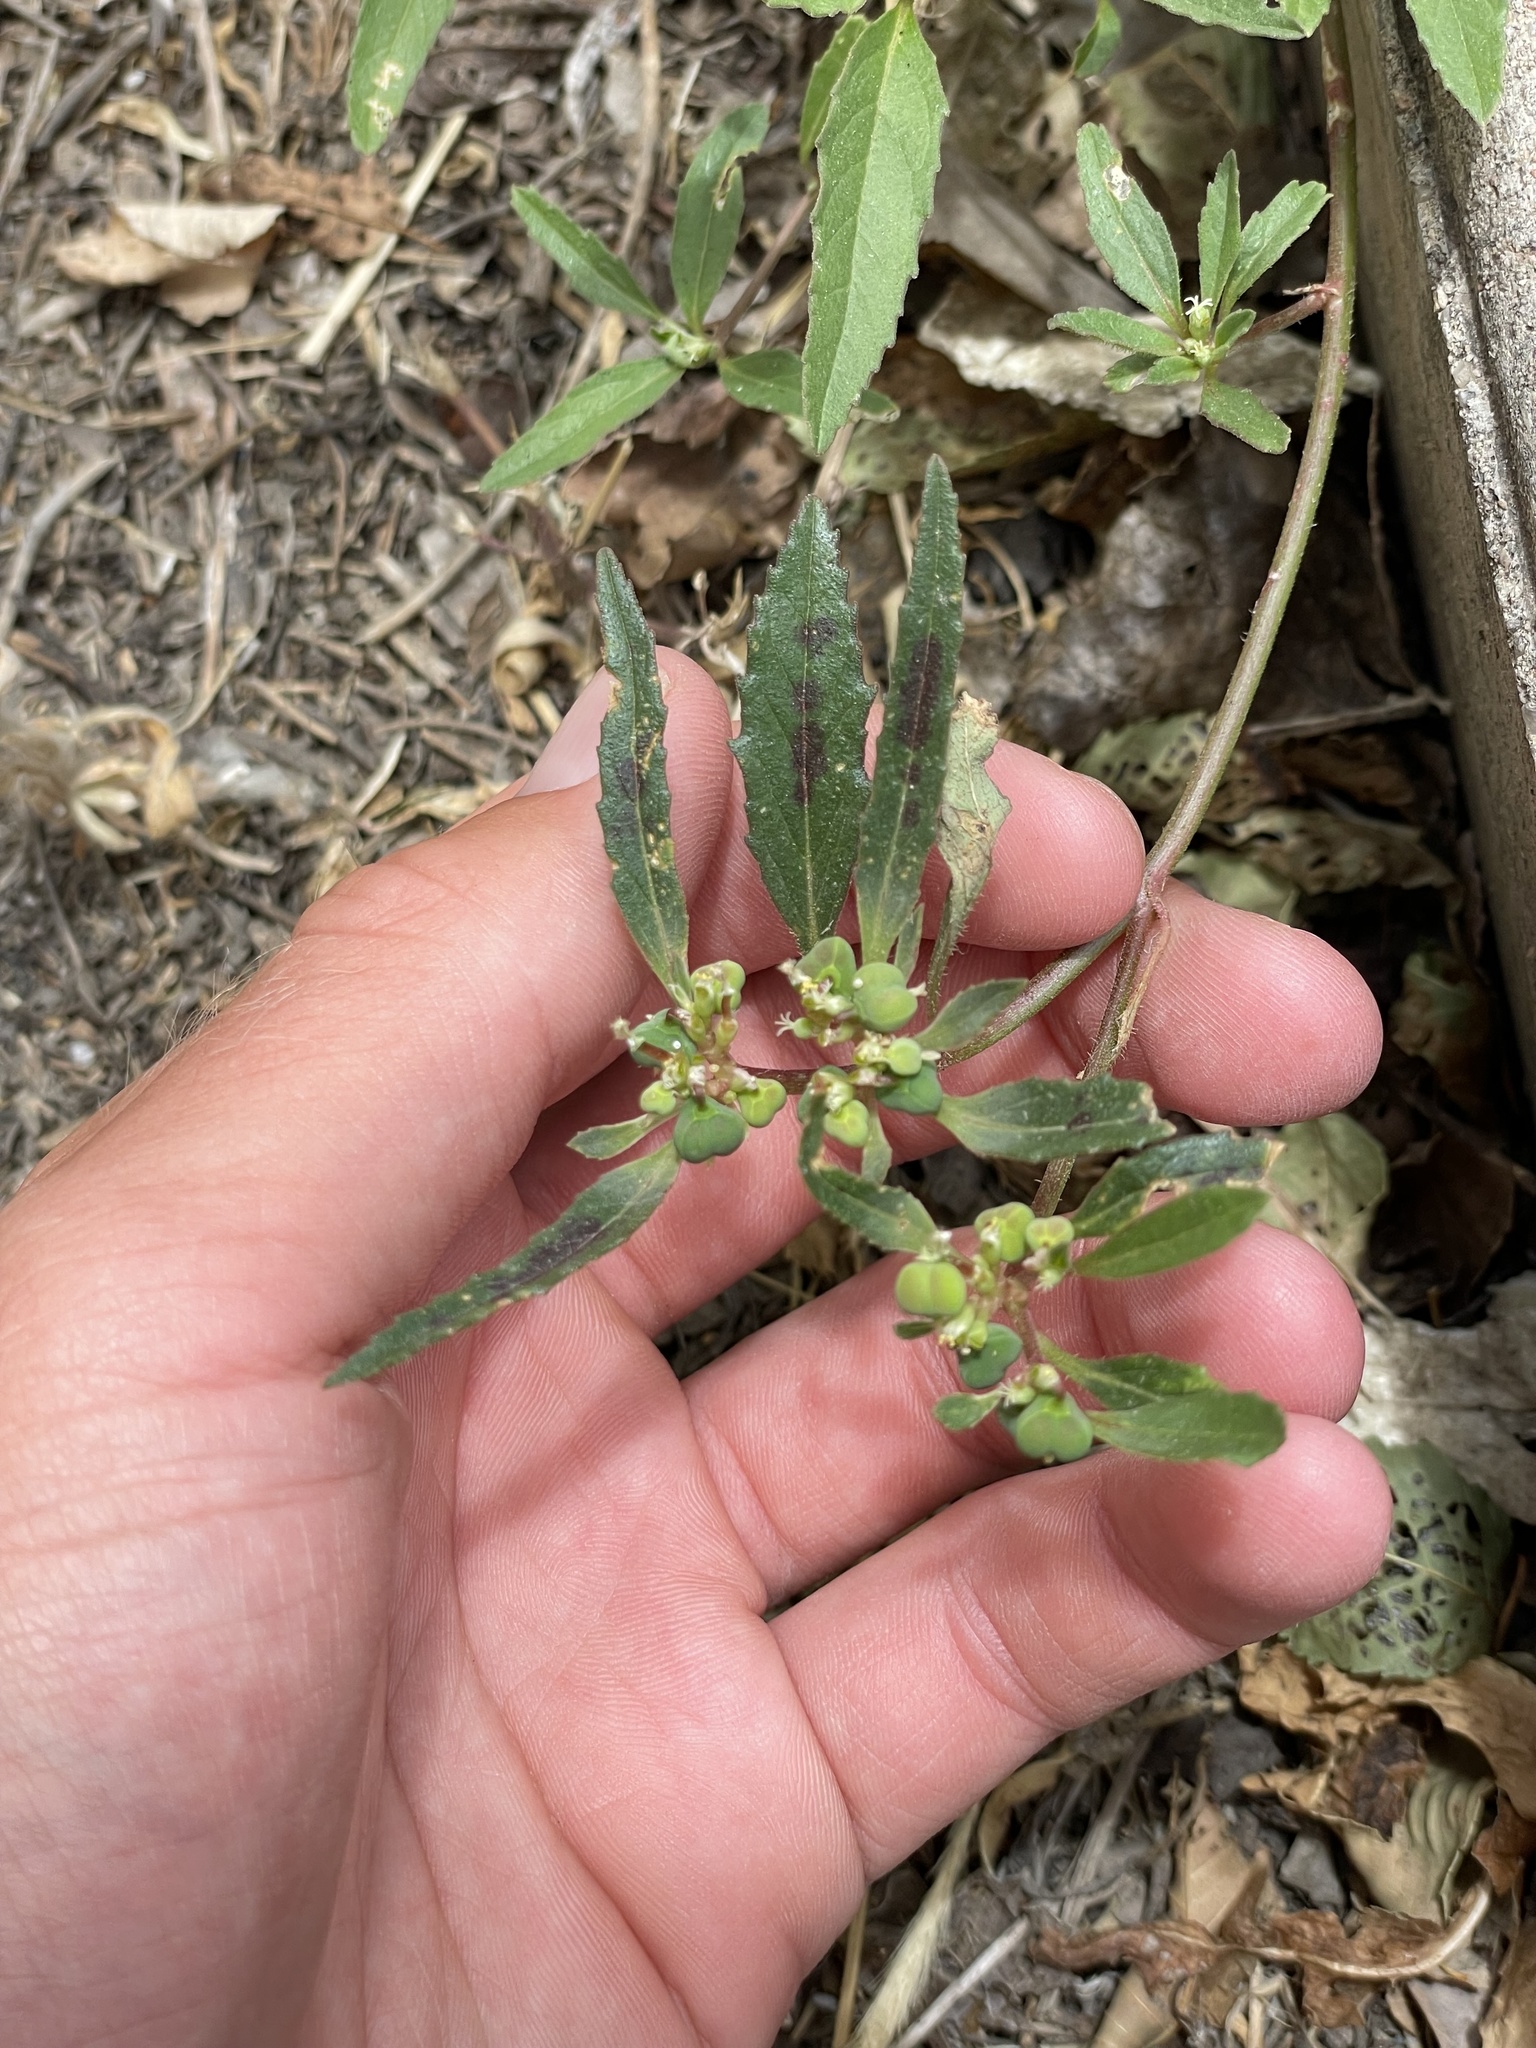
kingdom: Plantae
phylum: Tracheophyta
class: Magnoliopsida
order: Malpighiales
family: Euphorbiaceae
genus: Euphorbia
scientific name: Euphorbia davidii
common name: David's spurge
